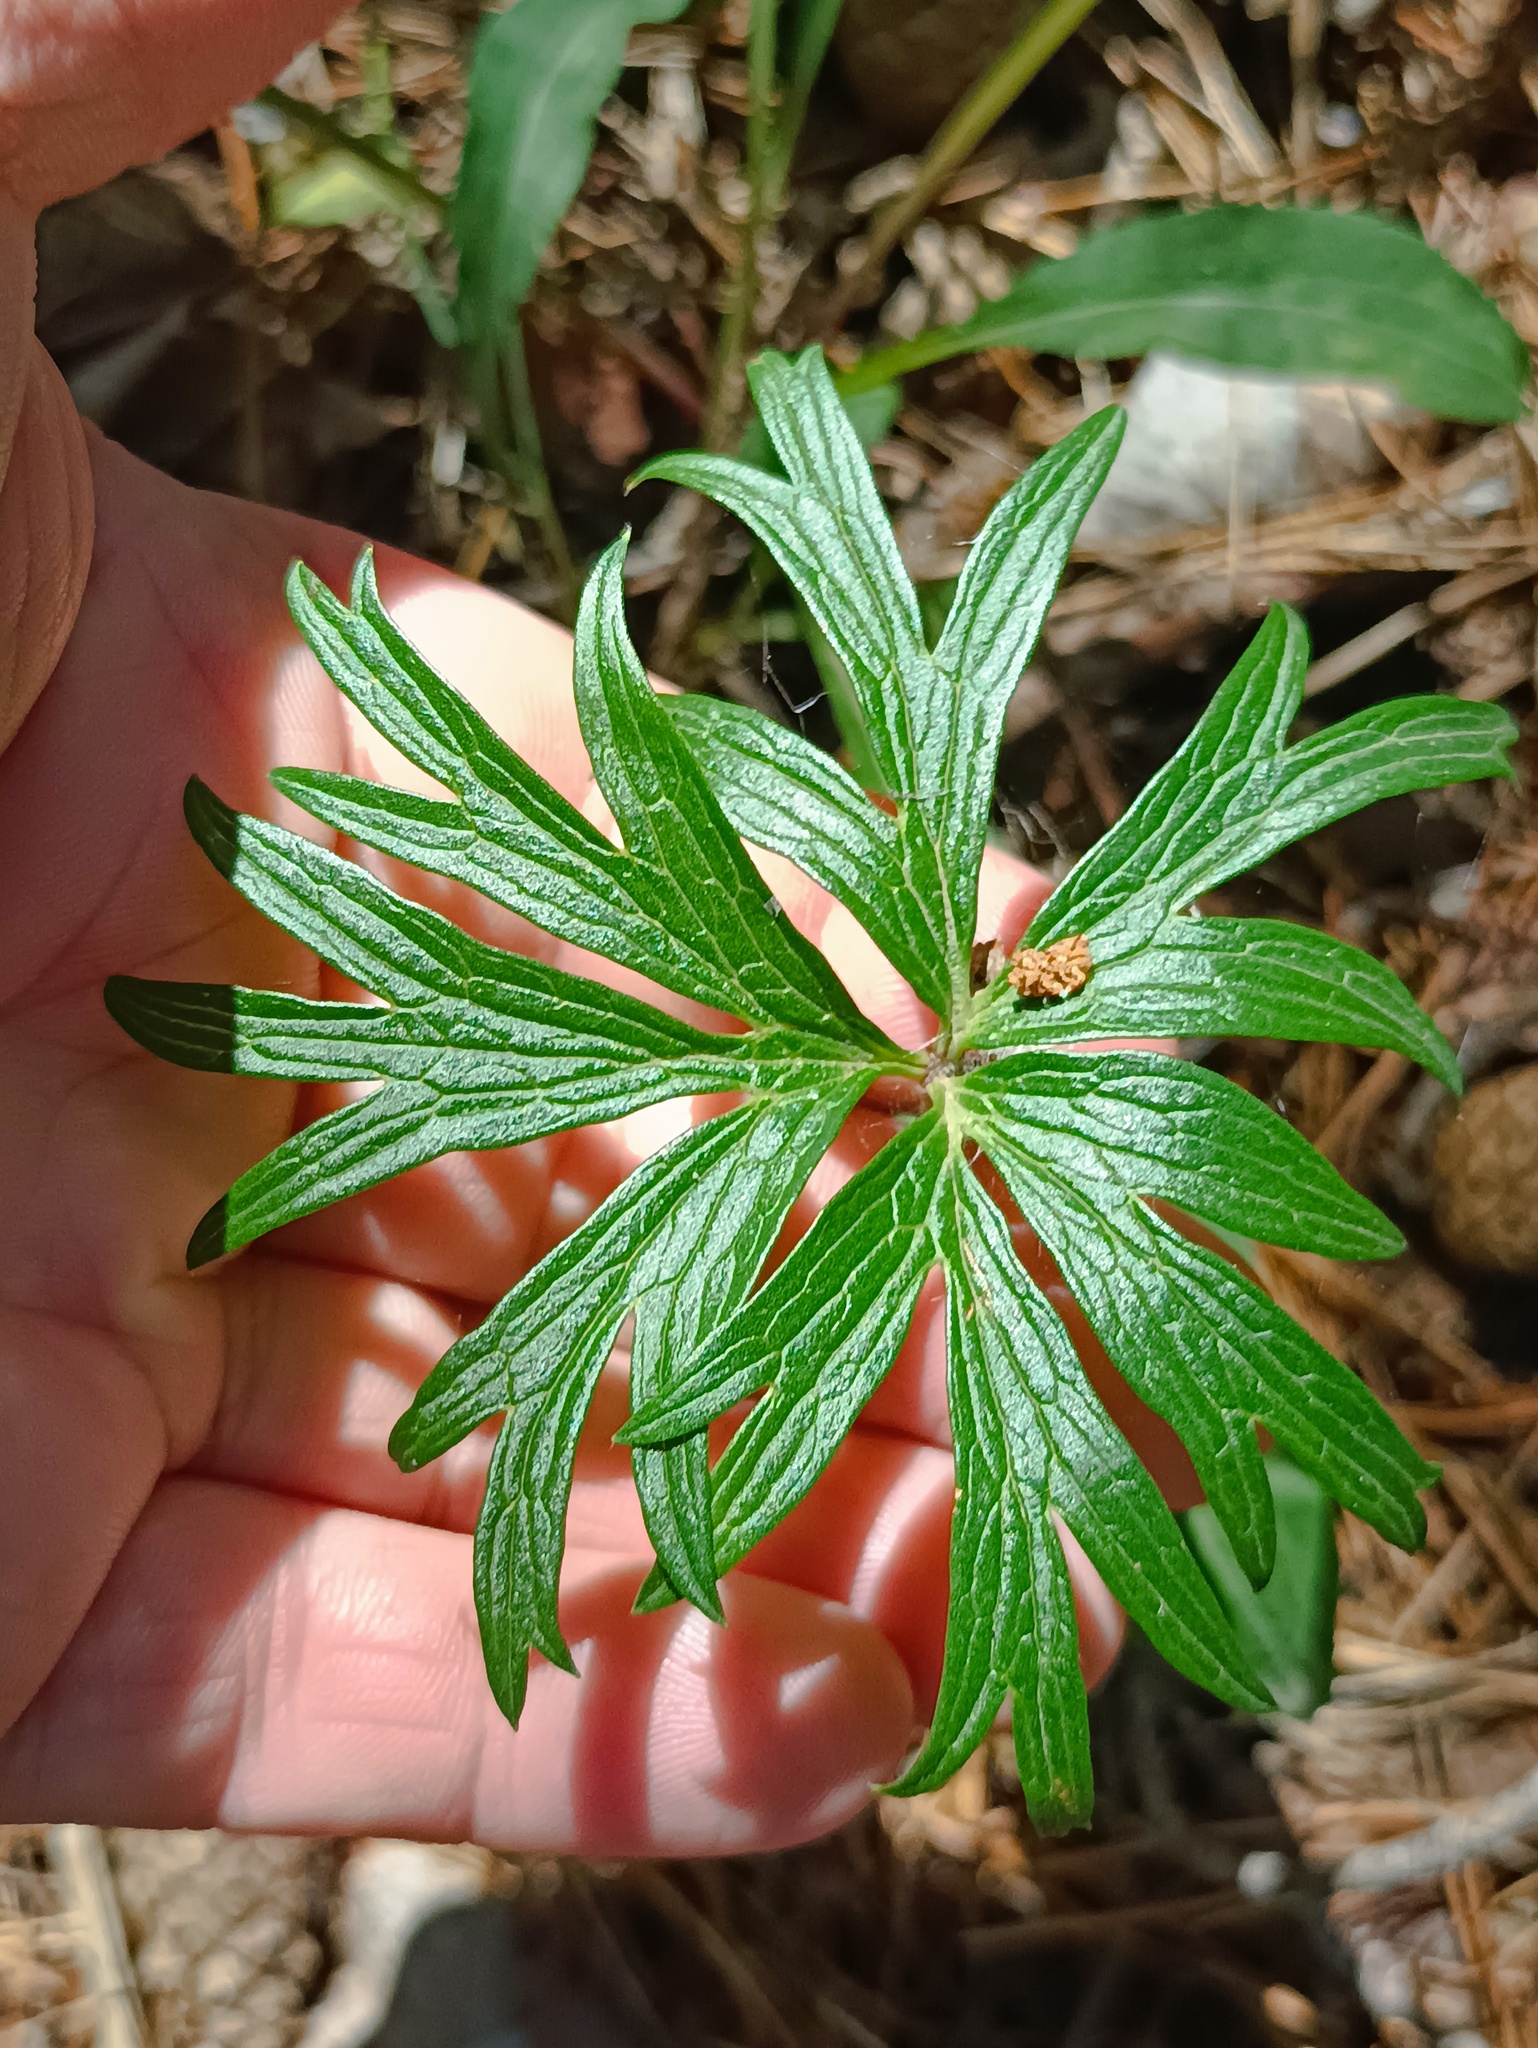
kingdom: Plantae
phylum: Tracheophyta
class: Magnoliopsida
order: Ranunculales
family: Ranunculaceae
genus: Pulsatilla
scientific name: Pulsatilla patens
